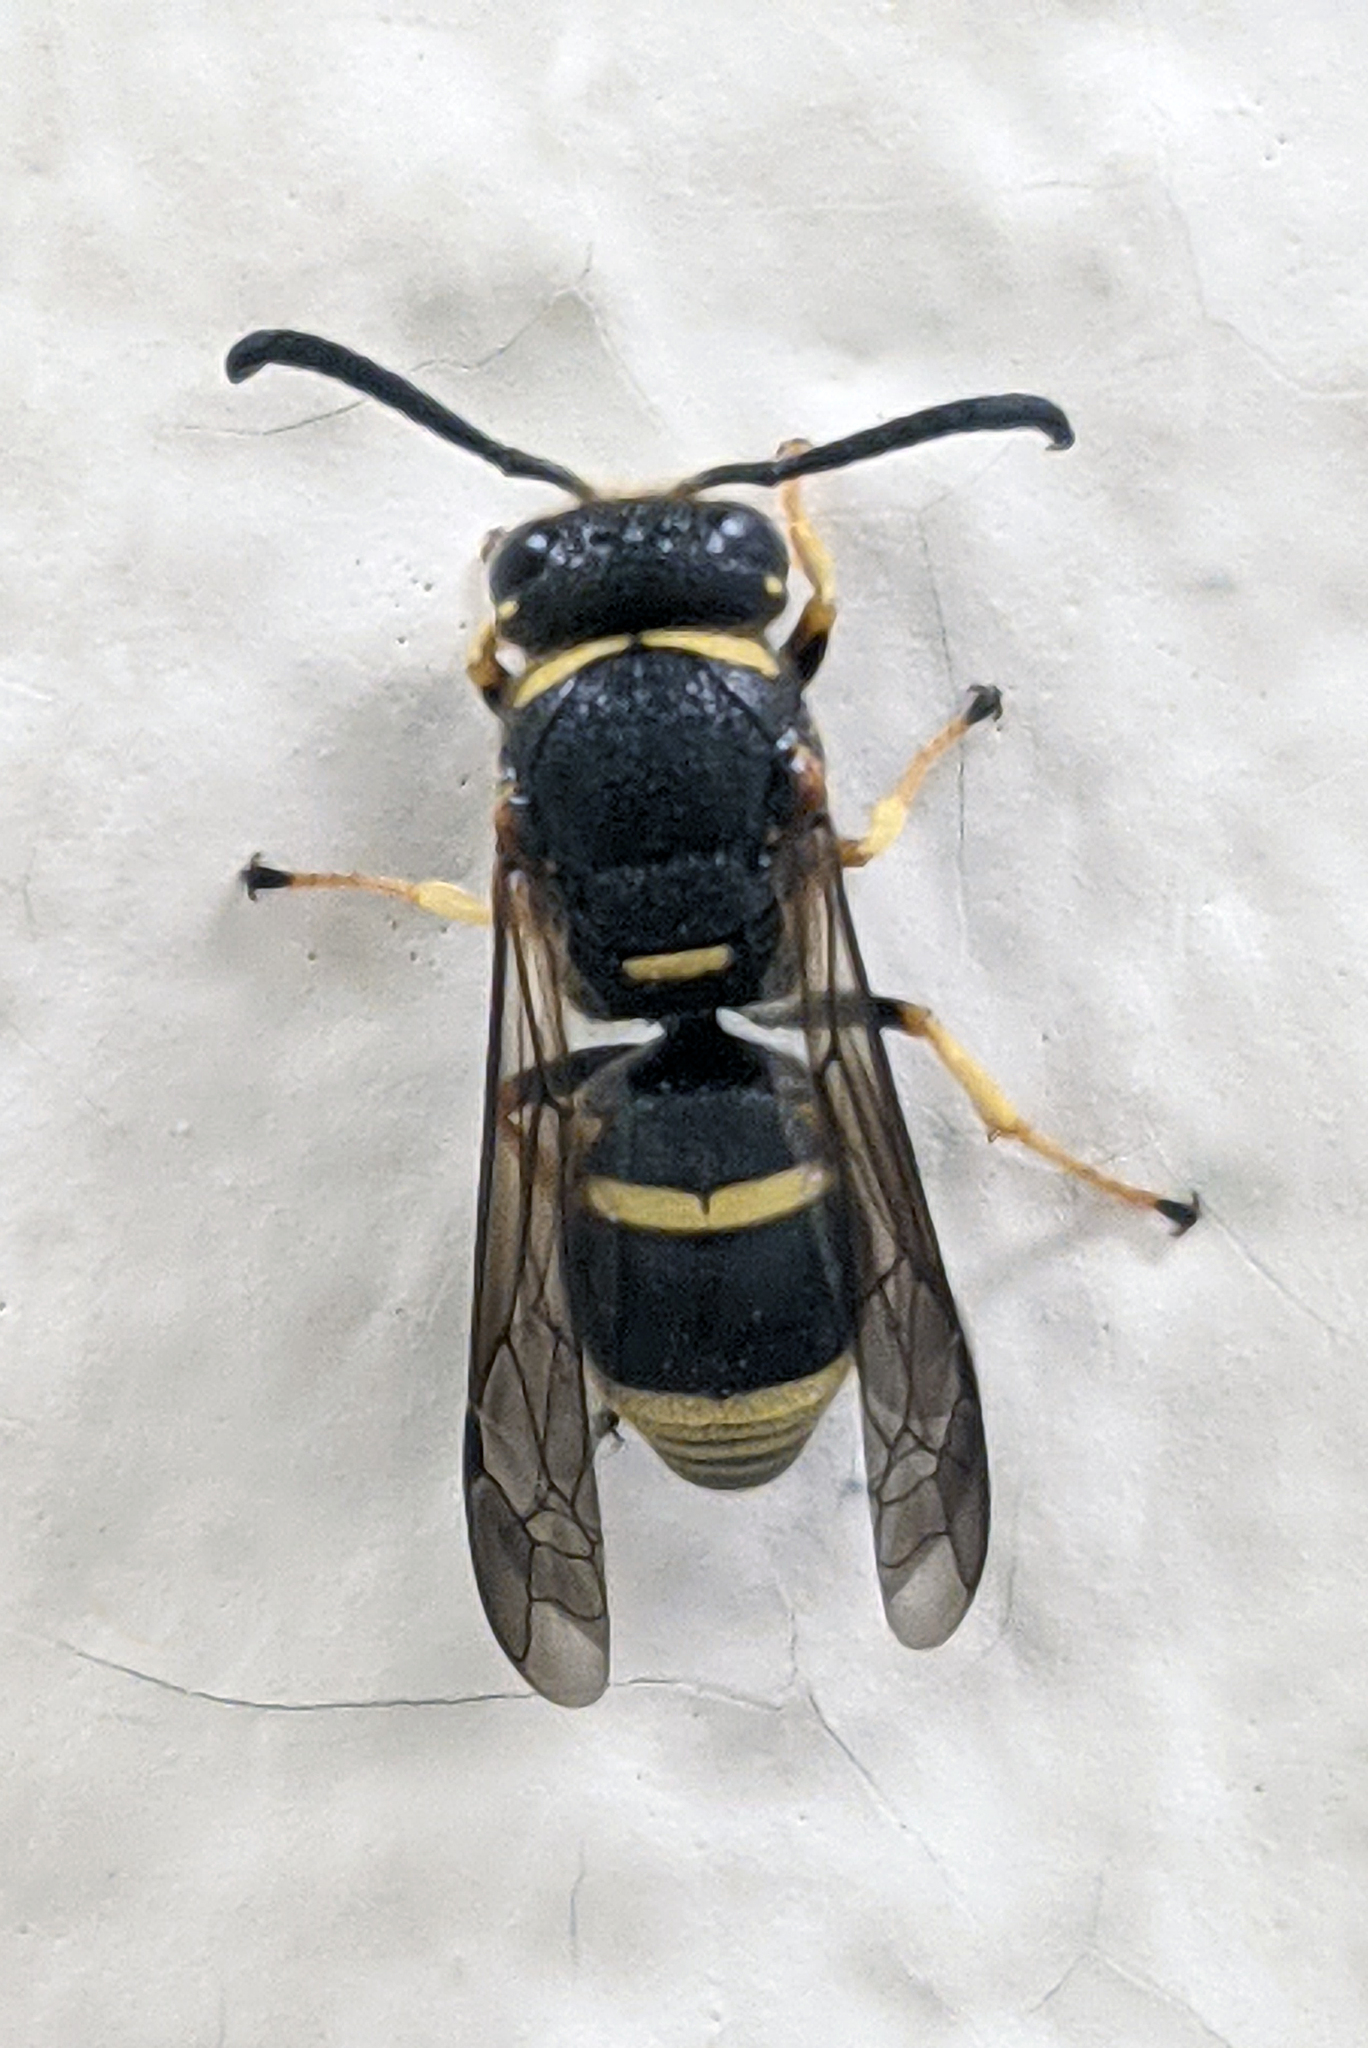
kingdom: Animalia
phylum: Arthropoda
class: Insecta
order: Hymenoptera
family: Eumenidae
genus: Euodynerus
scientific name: Euodynerus foraminatus
